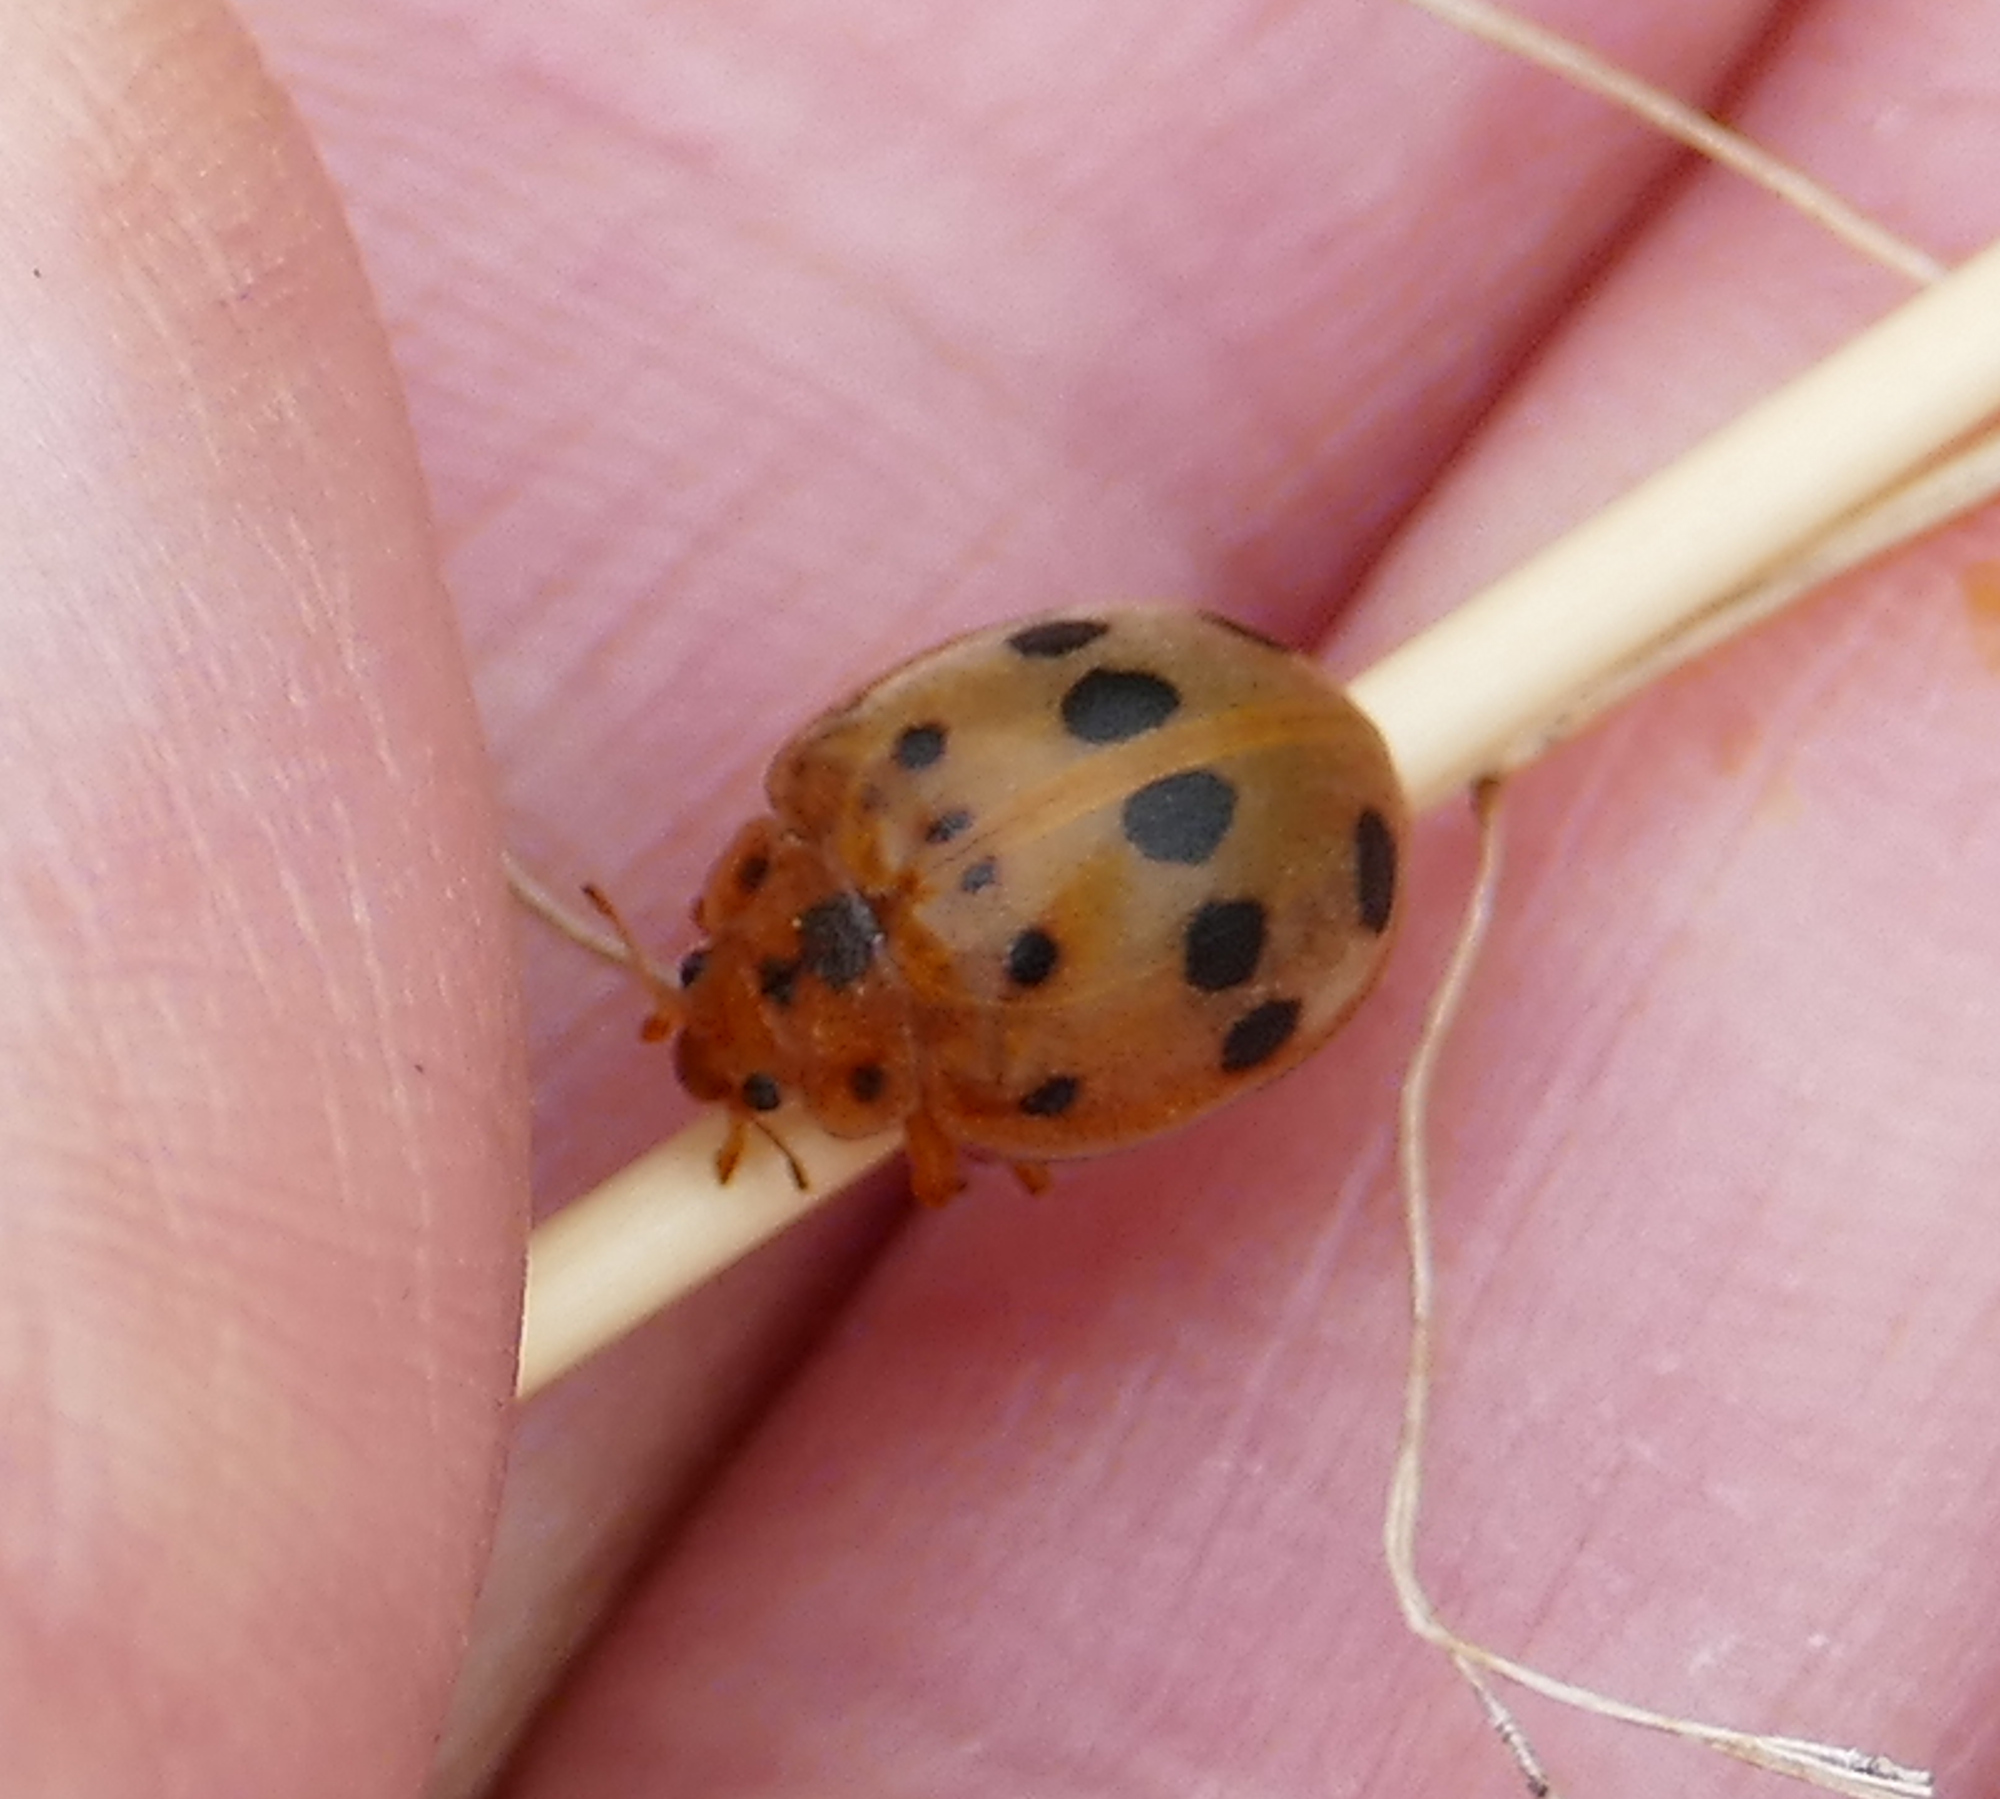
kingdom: Animalia
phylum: Arthropoda
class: Insecta
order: Coleoptera
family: Coccinellidae
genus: Epilachna
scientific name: Epilachna tredecimnotata
